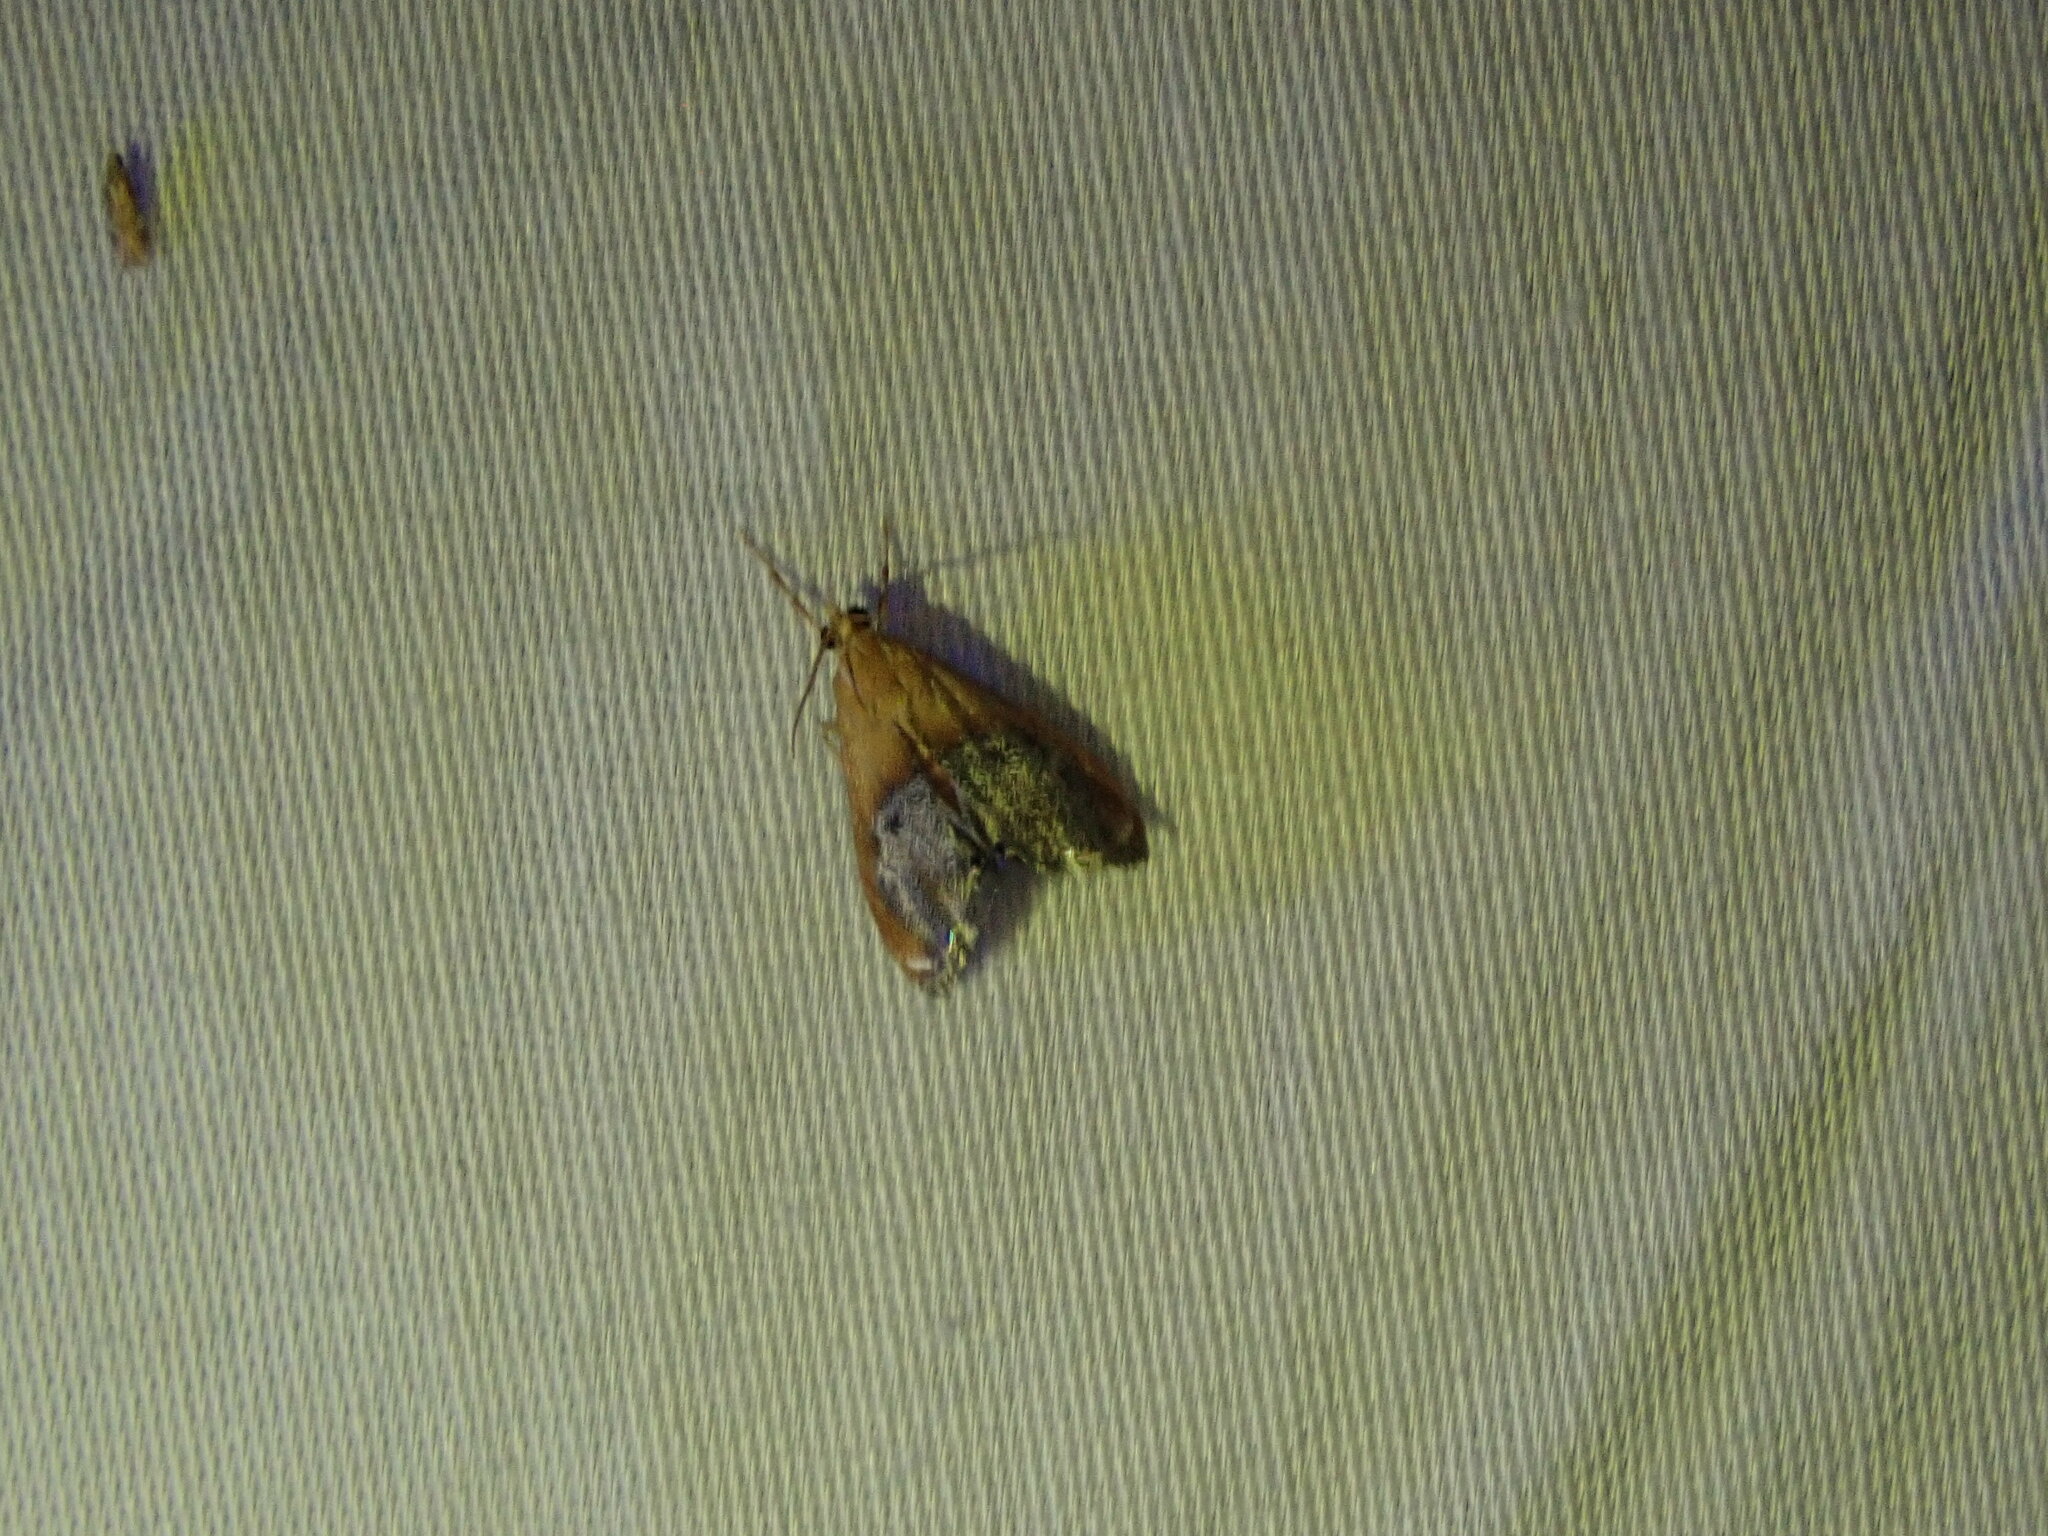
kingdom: Animalia
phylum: Arthropoda
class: Insecta
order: Lepidoptera
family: Crambidae
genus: Chalcoela
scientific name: Chalcoela iphitalis
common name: Sooty-winged chalcoela moth
